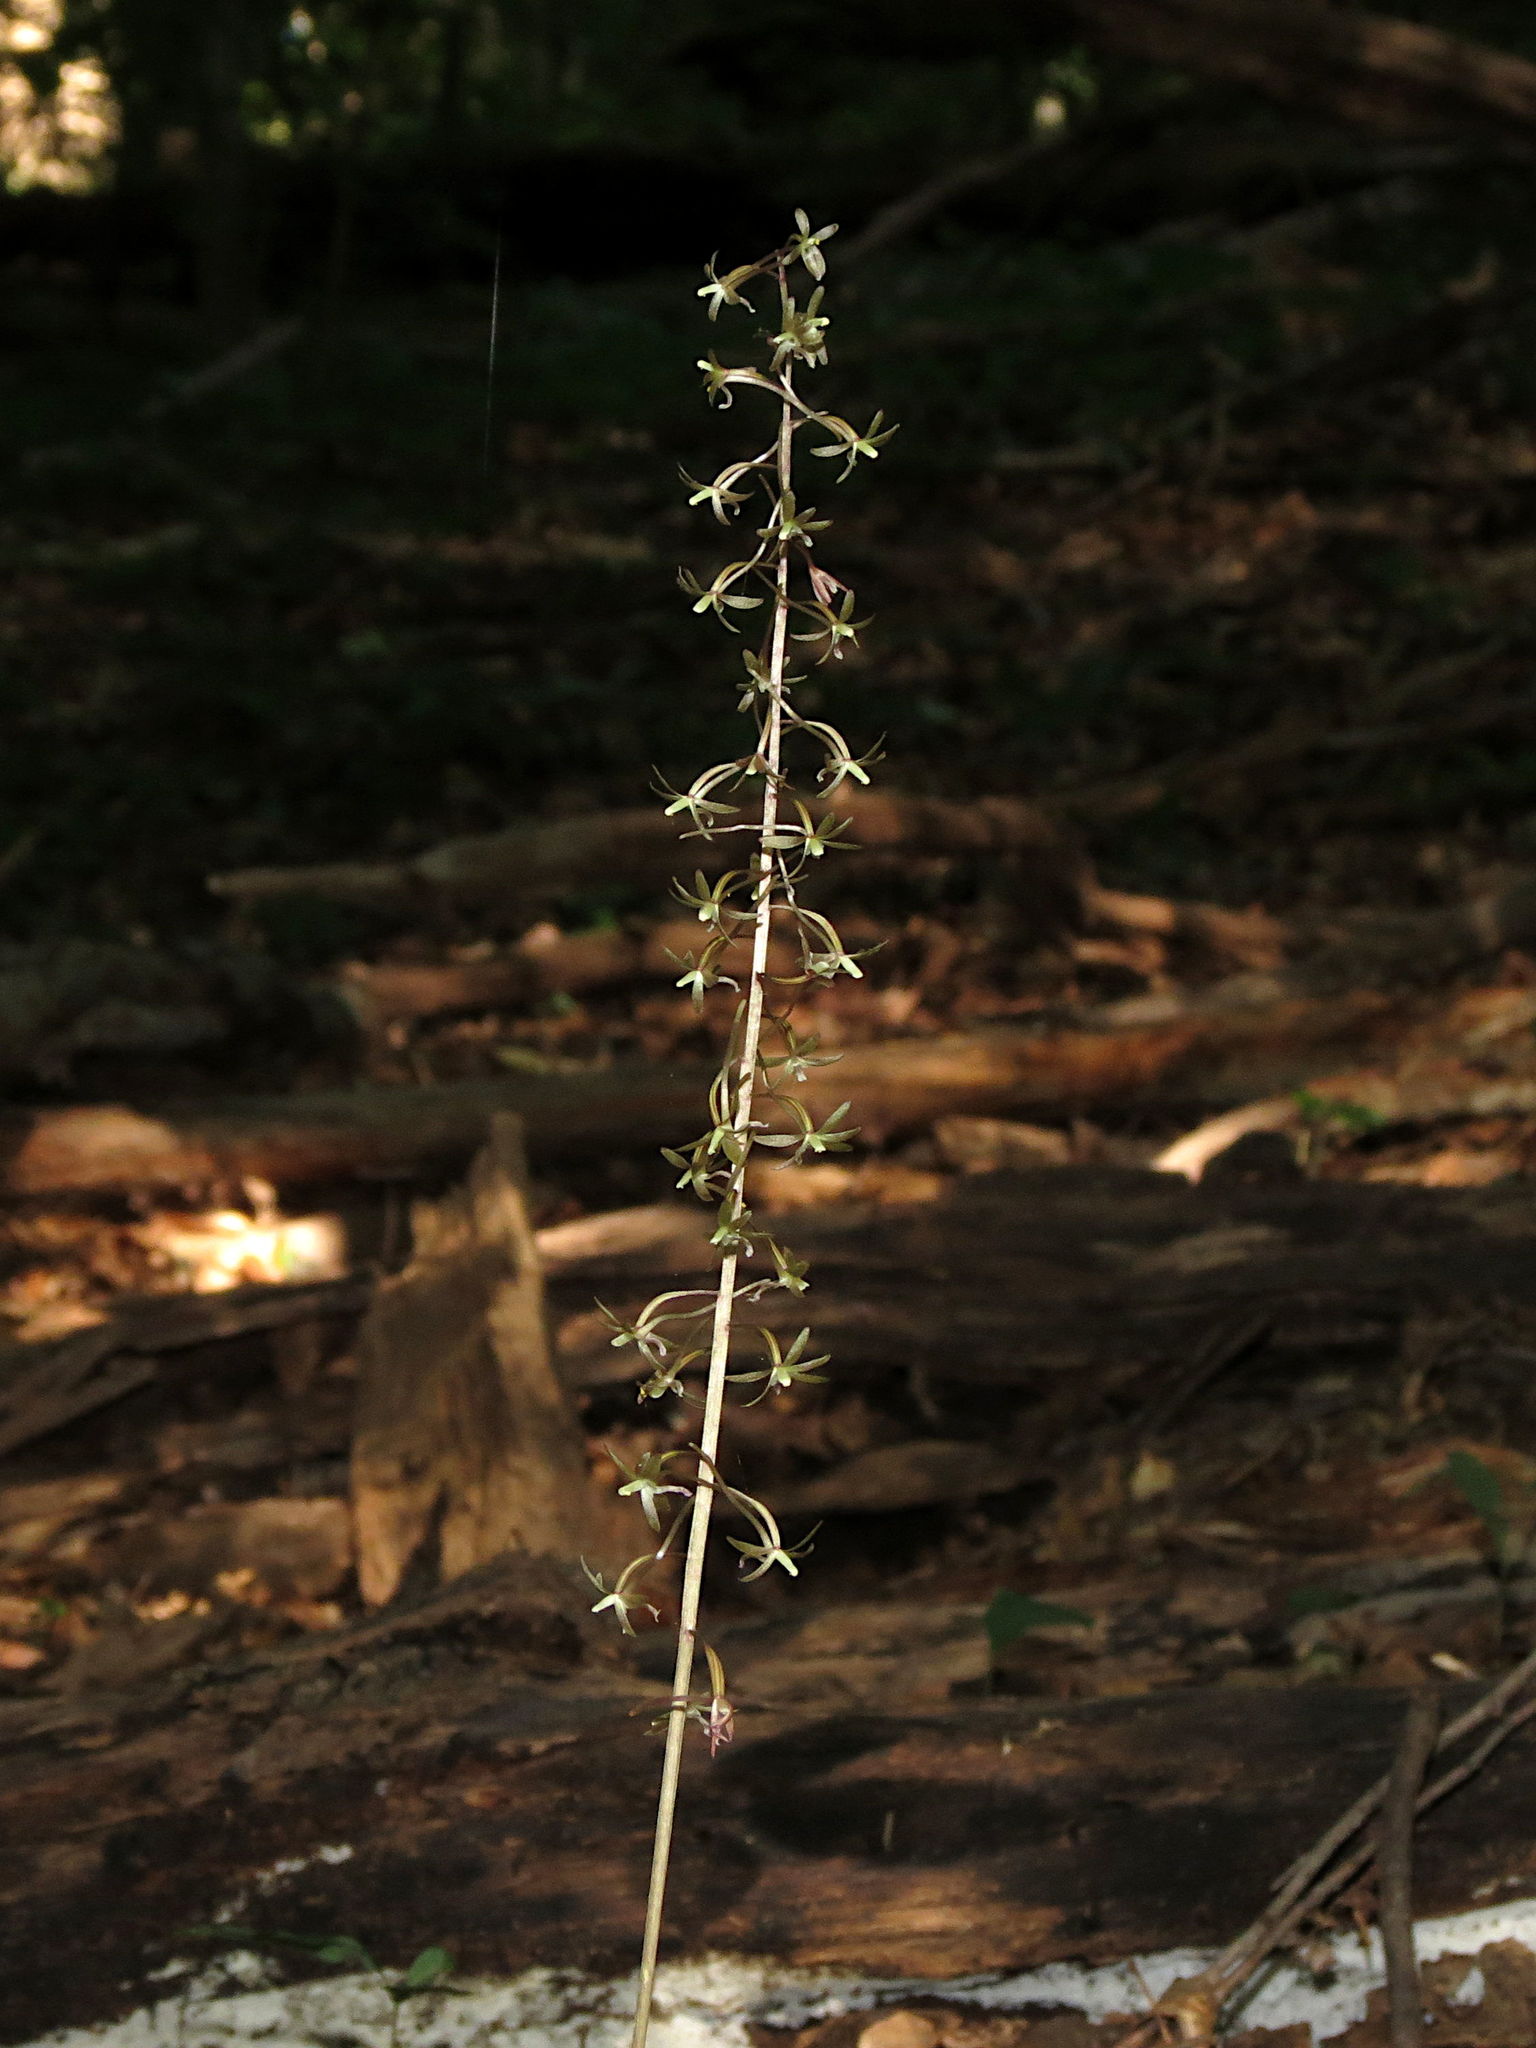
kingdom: Plantae
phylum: Tracheophyta
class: Liliopsida
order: Asparagales
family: Orchidaceae
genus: Tipularia
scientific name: Tipularia discolor
